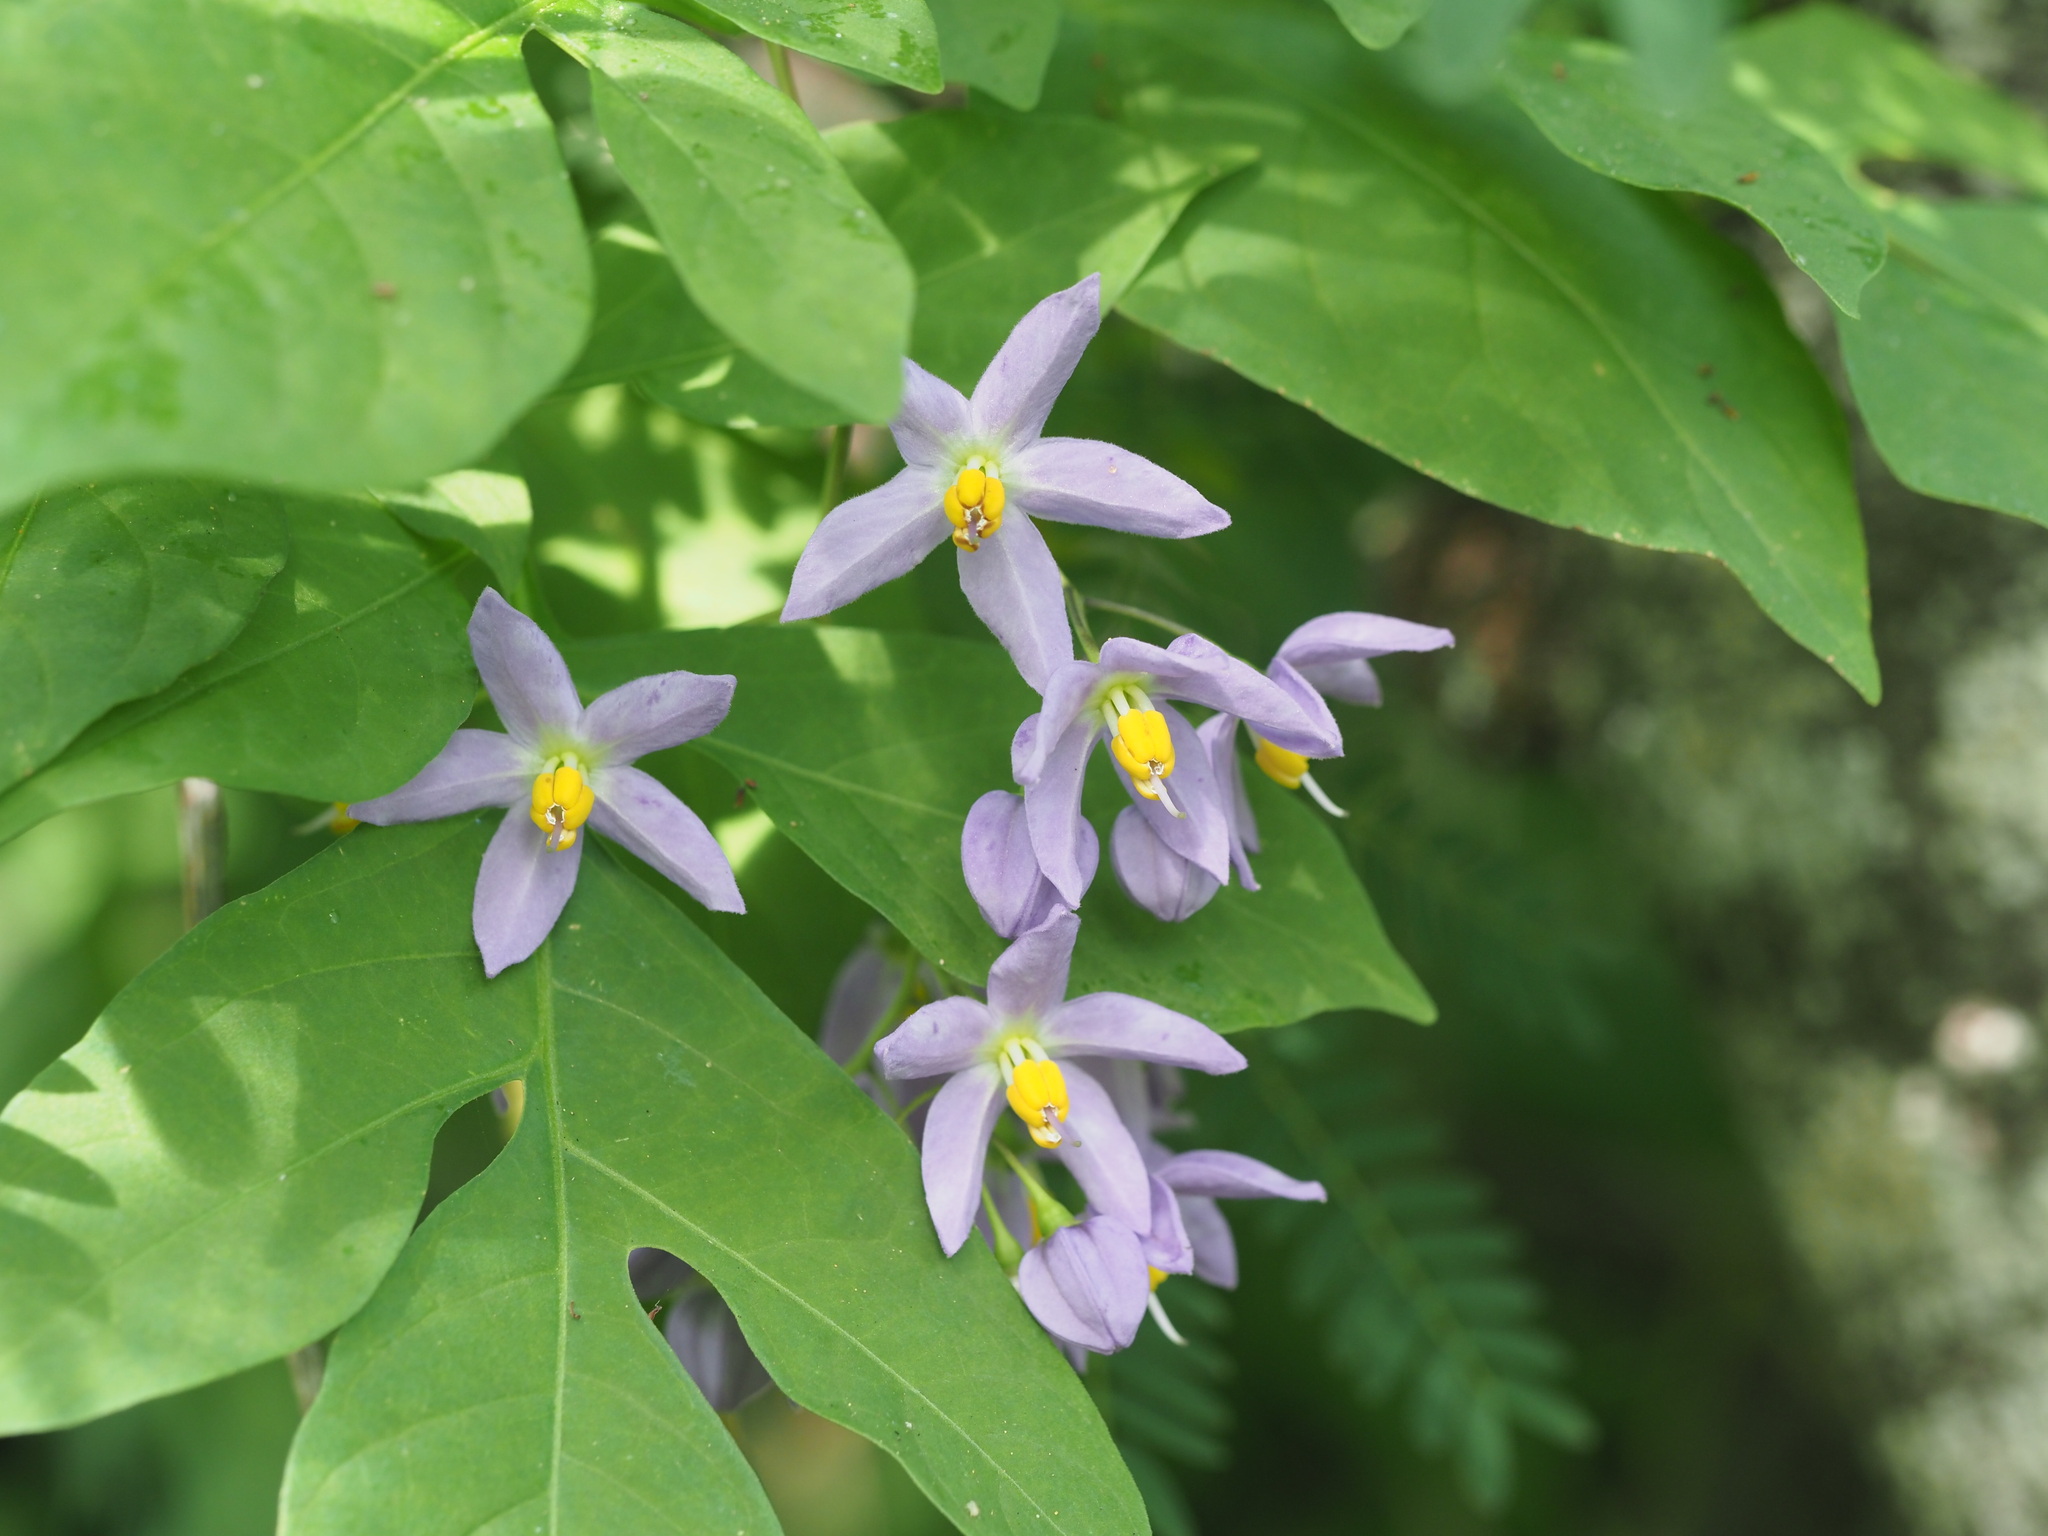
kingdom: Plantae
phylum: Tracheophyta
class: Magnoliopsida
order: Solanales
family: Solanaceae
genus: Solanum
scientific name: Solanum seaforthianum
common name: Brazilian nightshade
